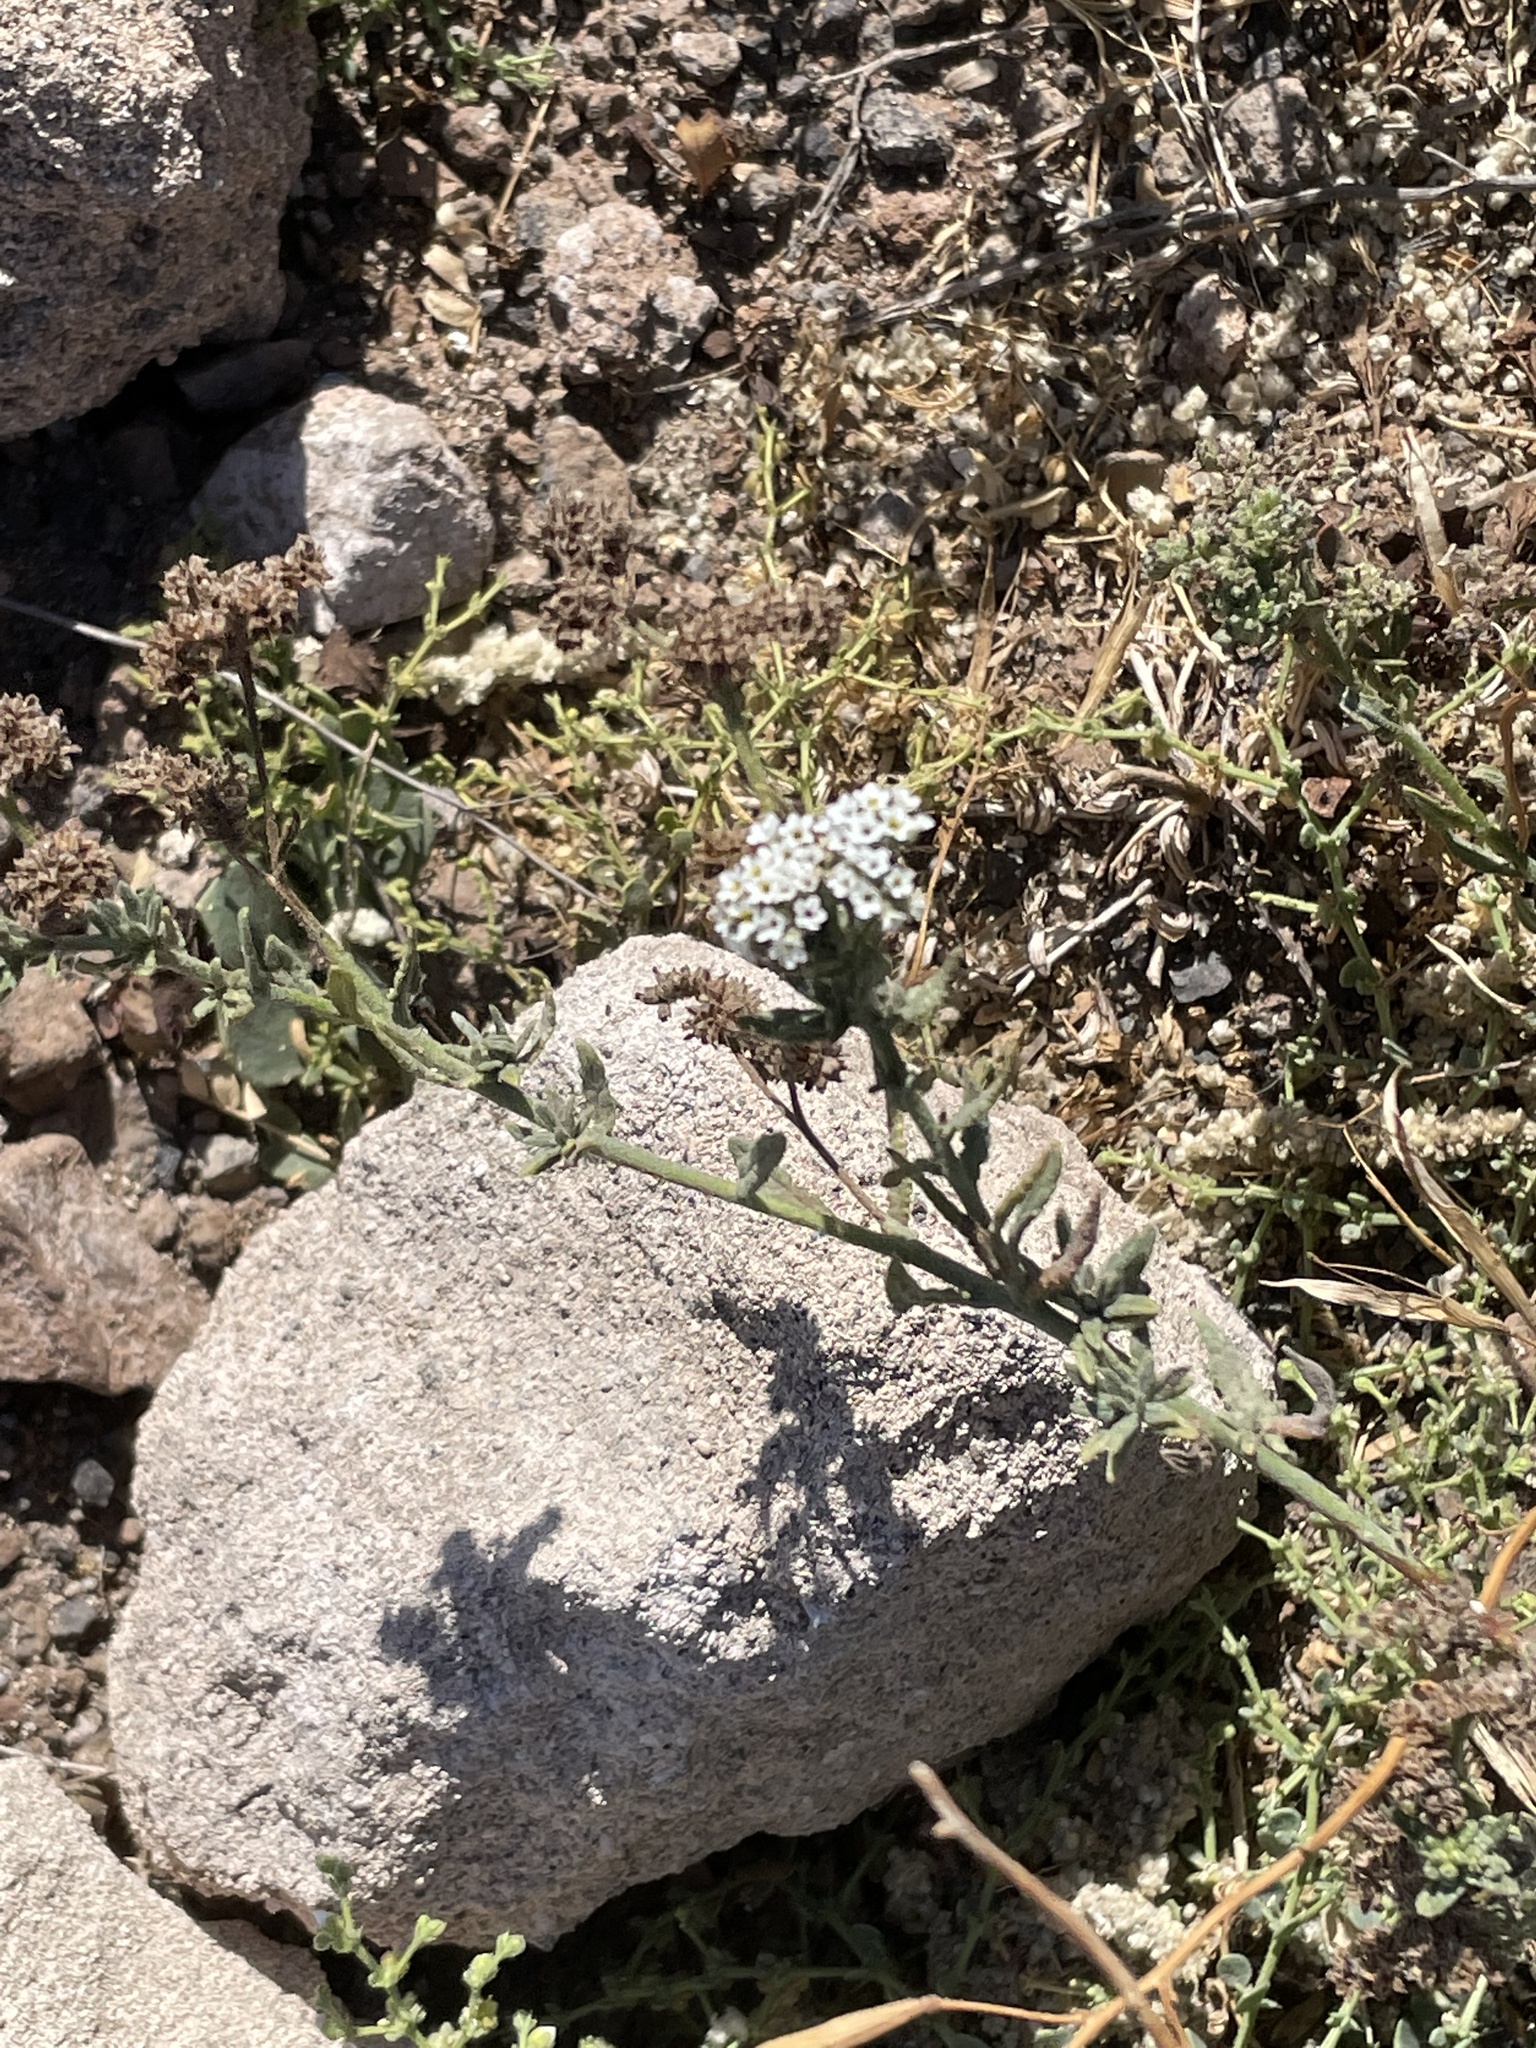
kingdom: Plantae
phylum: Tracheophyta
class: Magnoliopsida
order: Boraginales
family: Heliotropiaceae
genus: Heliotropium
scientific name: Heliotropium ramosissimum
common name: Wavy heliotrope
